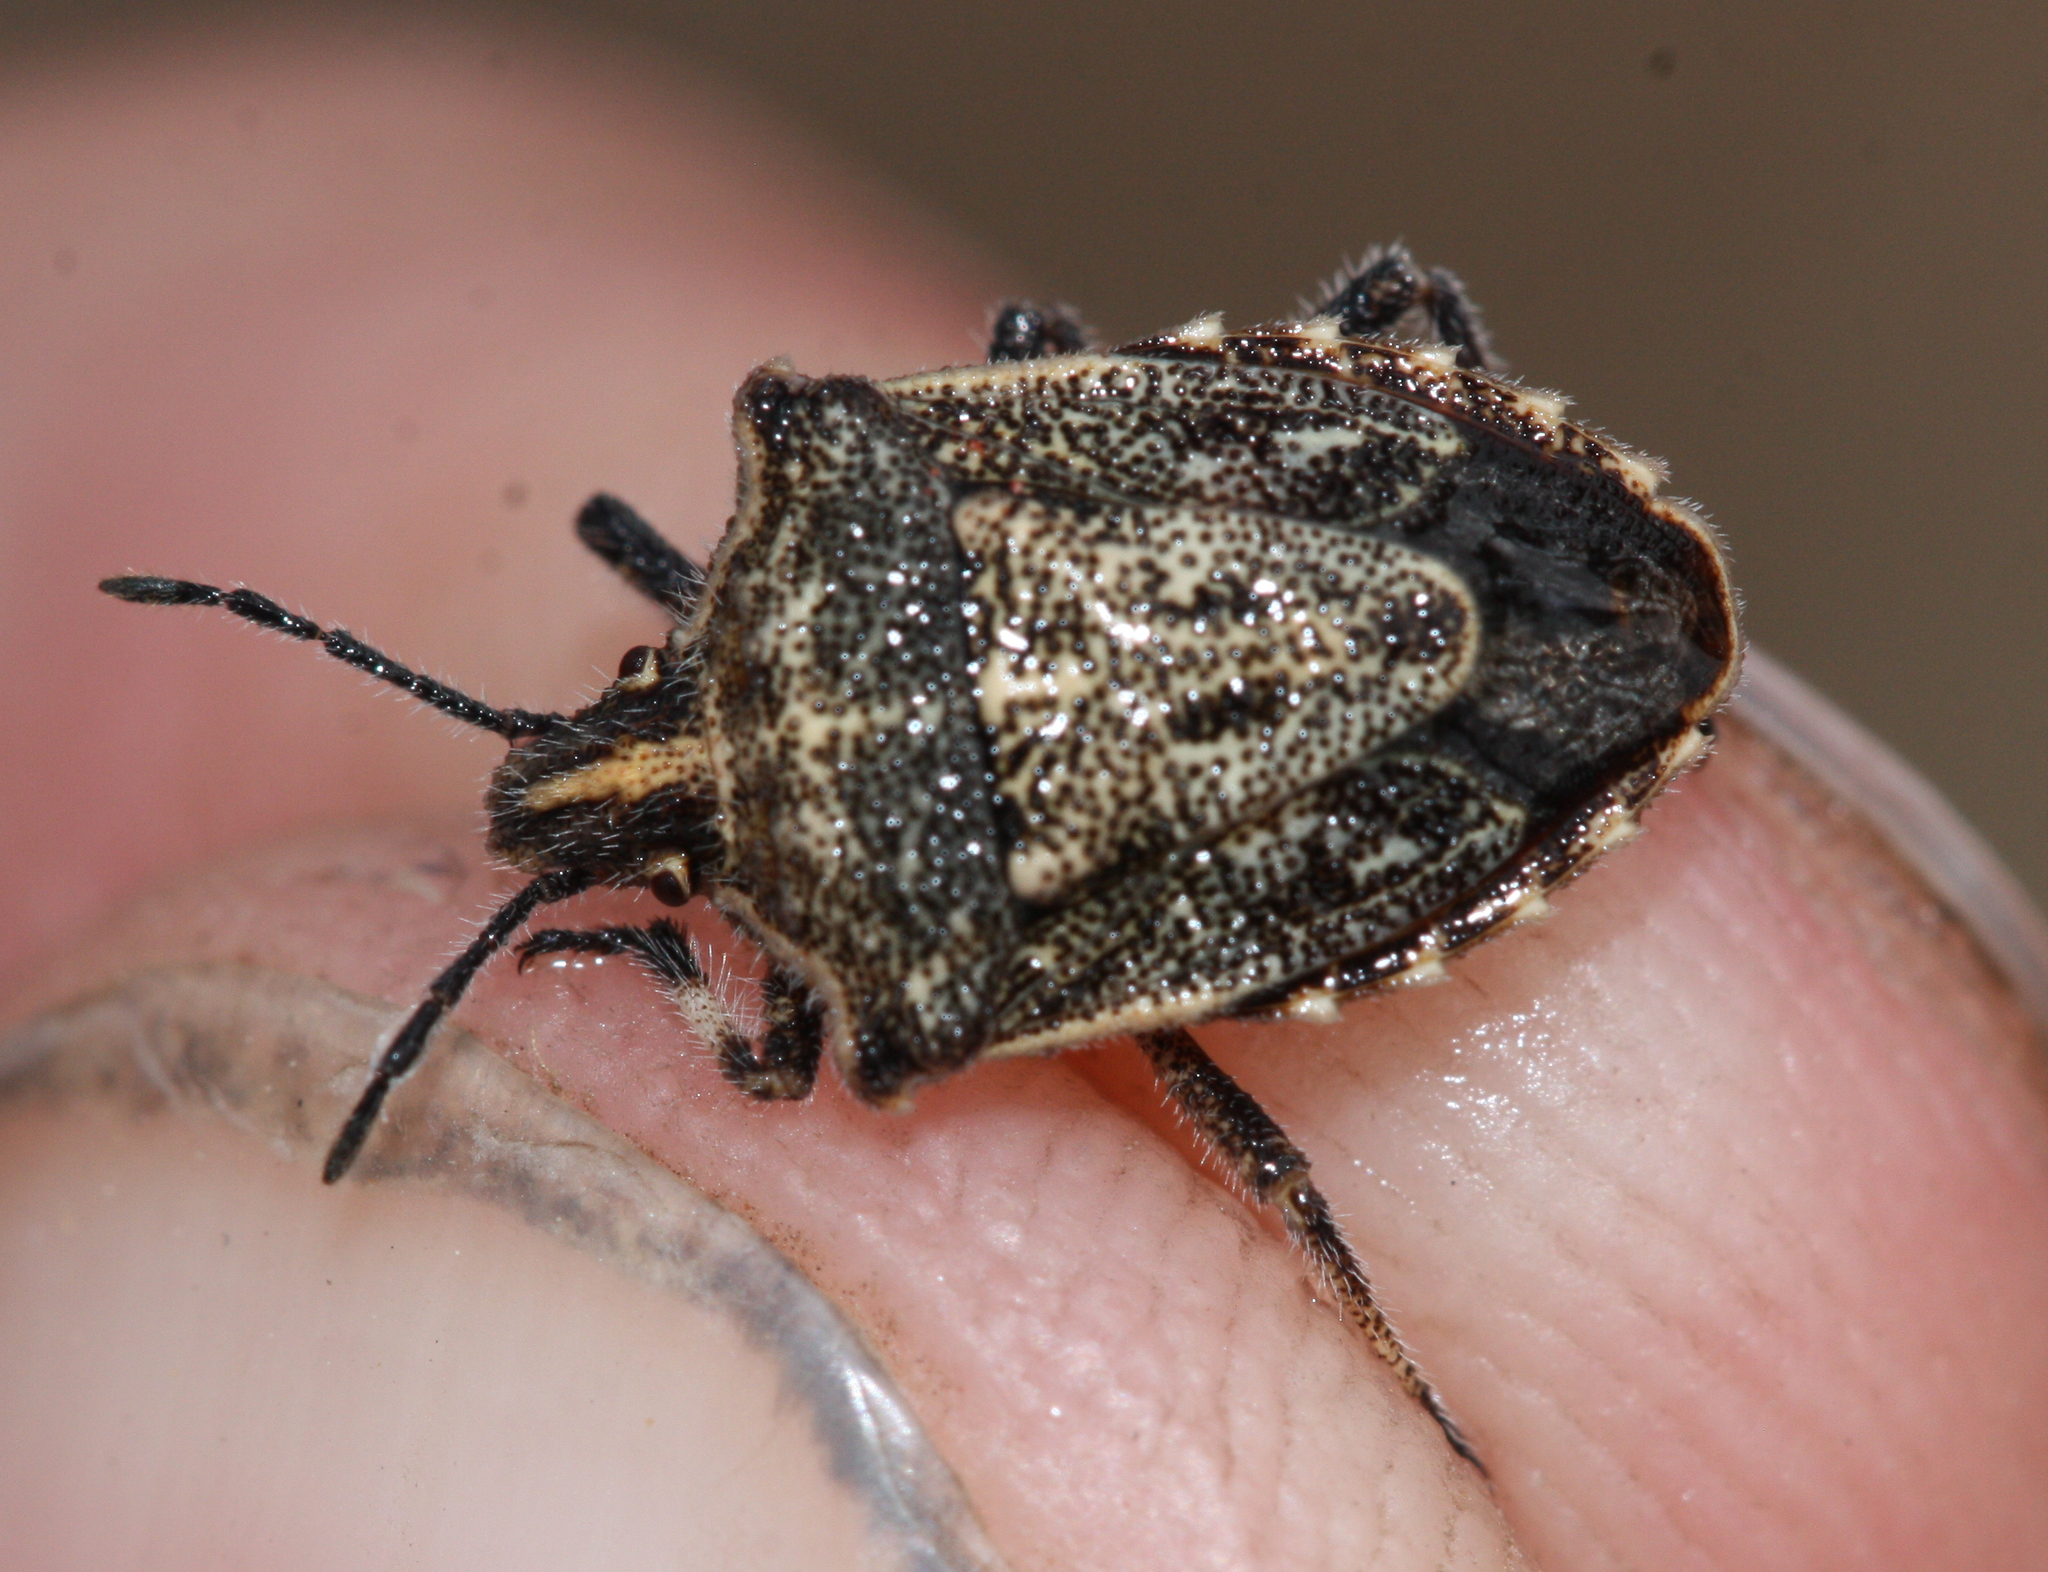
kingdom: Animalia
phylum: Arthropoda
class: Insecta
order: Hemiptera
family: Pentatomidae
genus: Prionosoma
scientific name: Prionosoma podopioides
